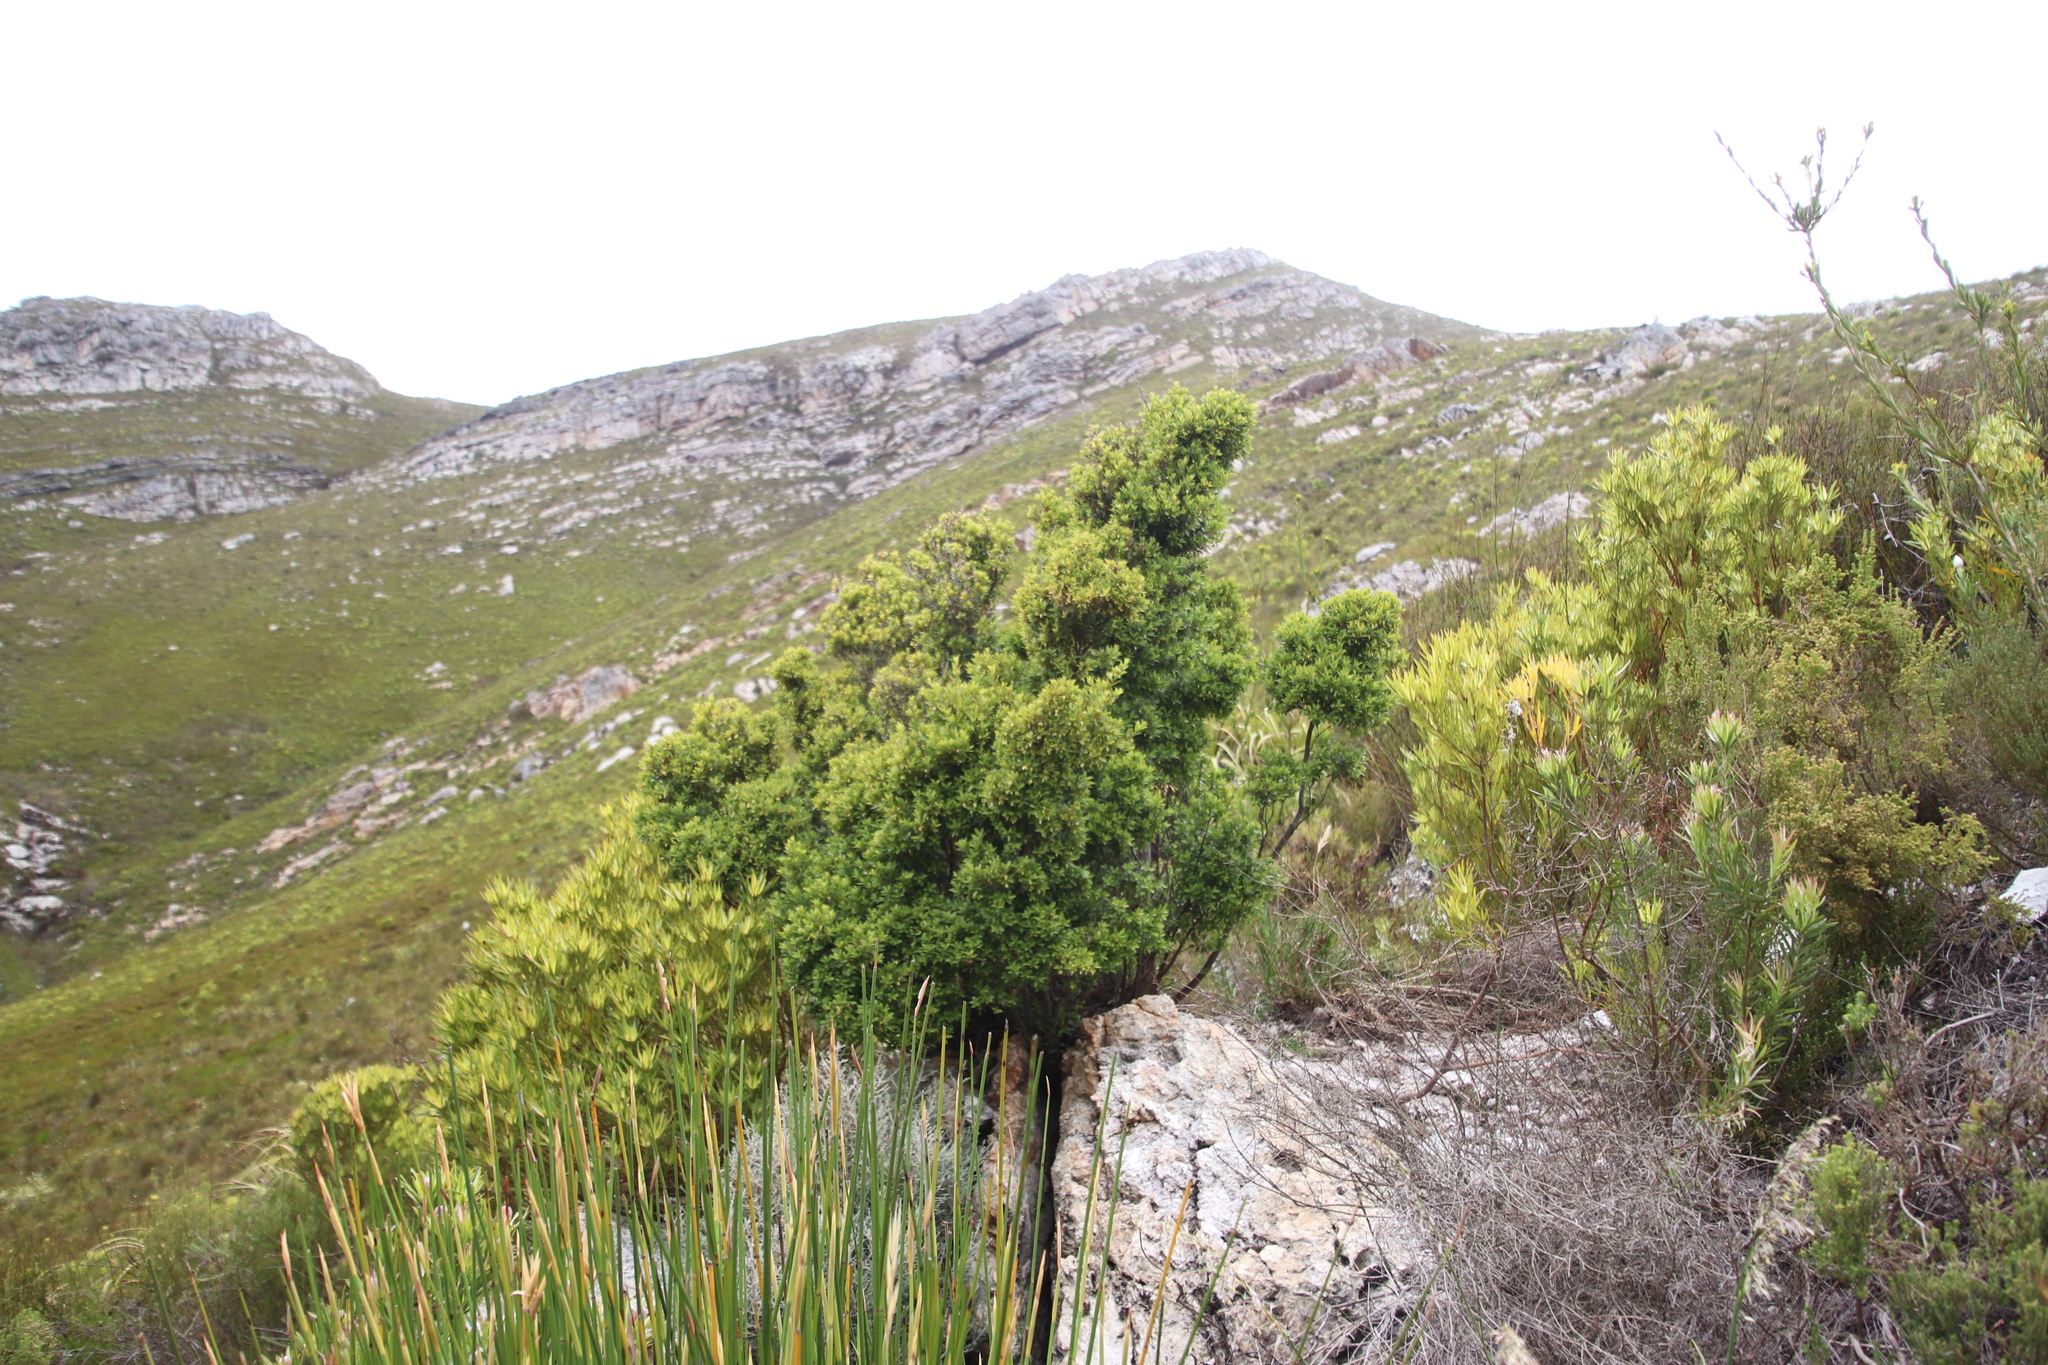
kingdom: Plantae
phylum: Tracheophyta
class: Magnoliopsida
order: Ericales
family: Ebenaceae
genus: Diospyros
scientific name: Diospyros glabra
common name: Fynbos star apple
